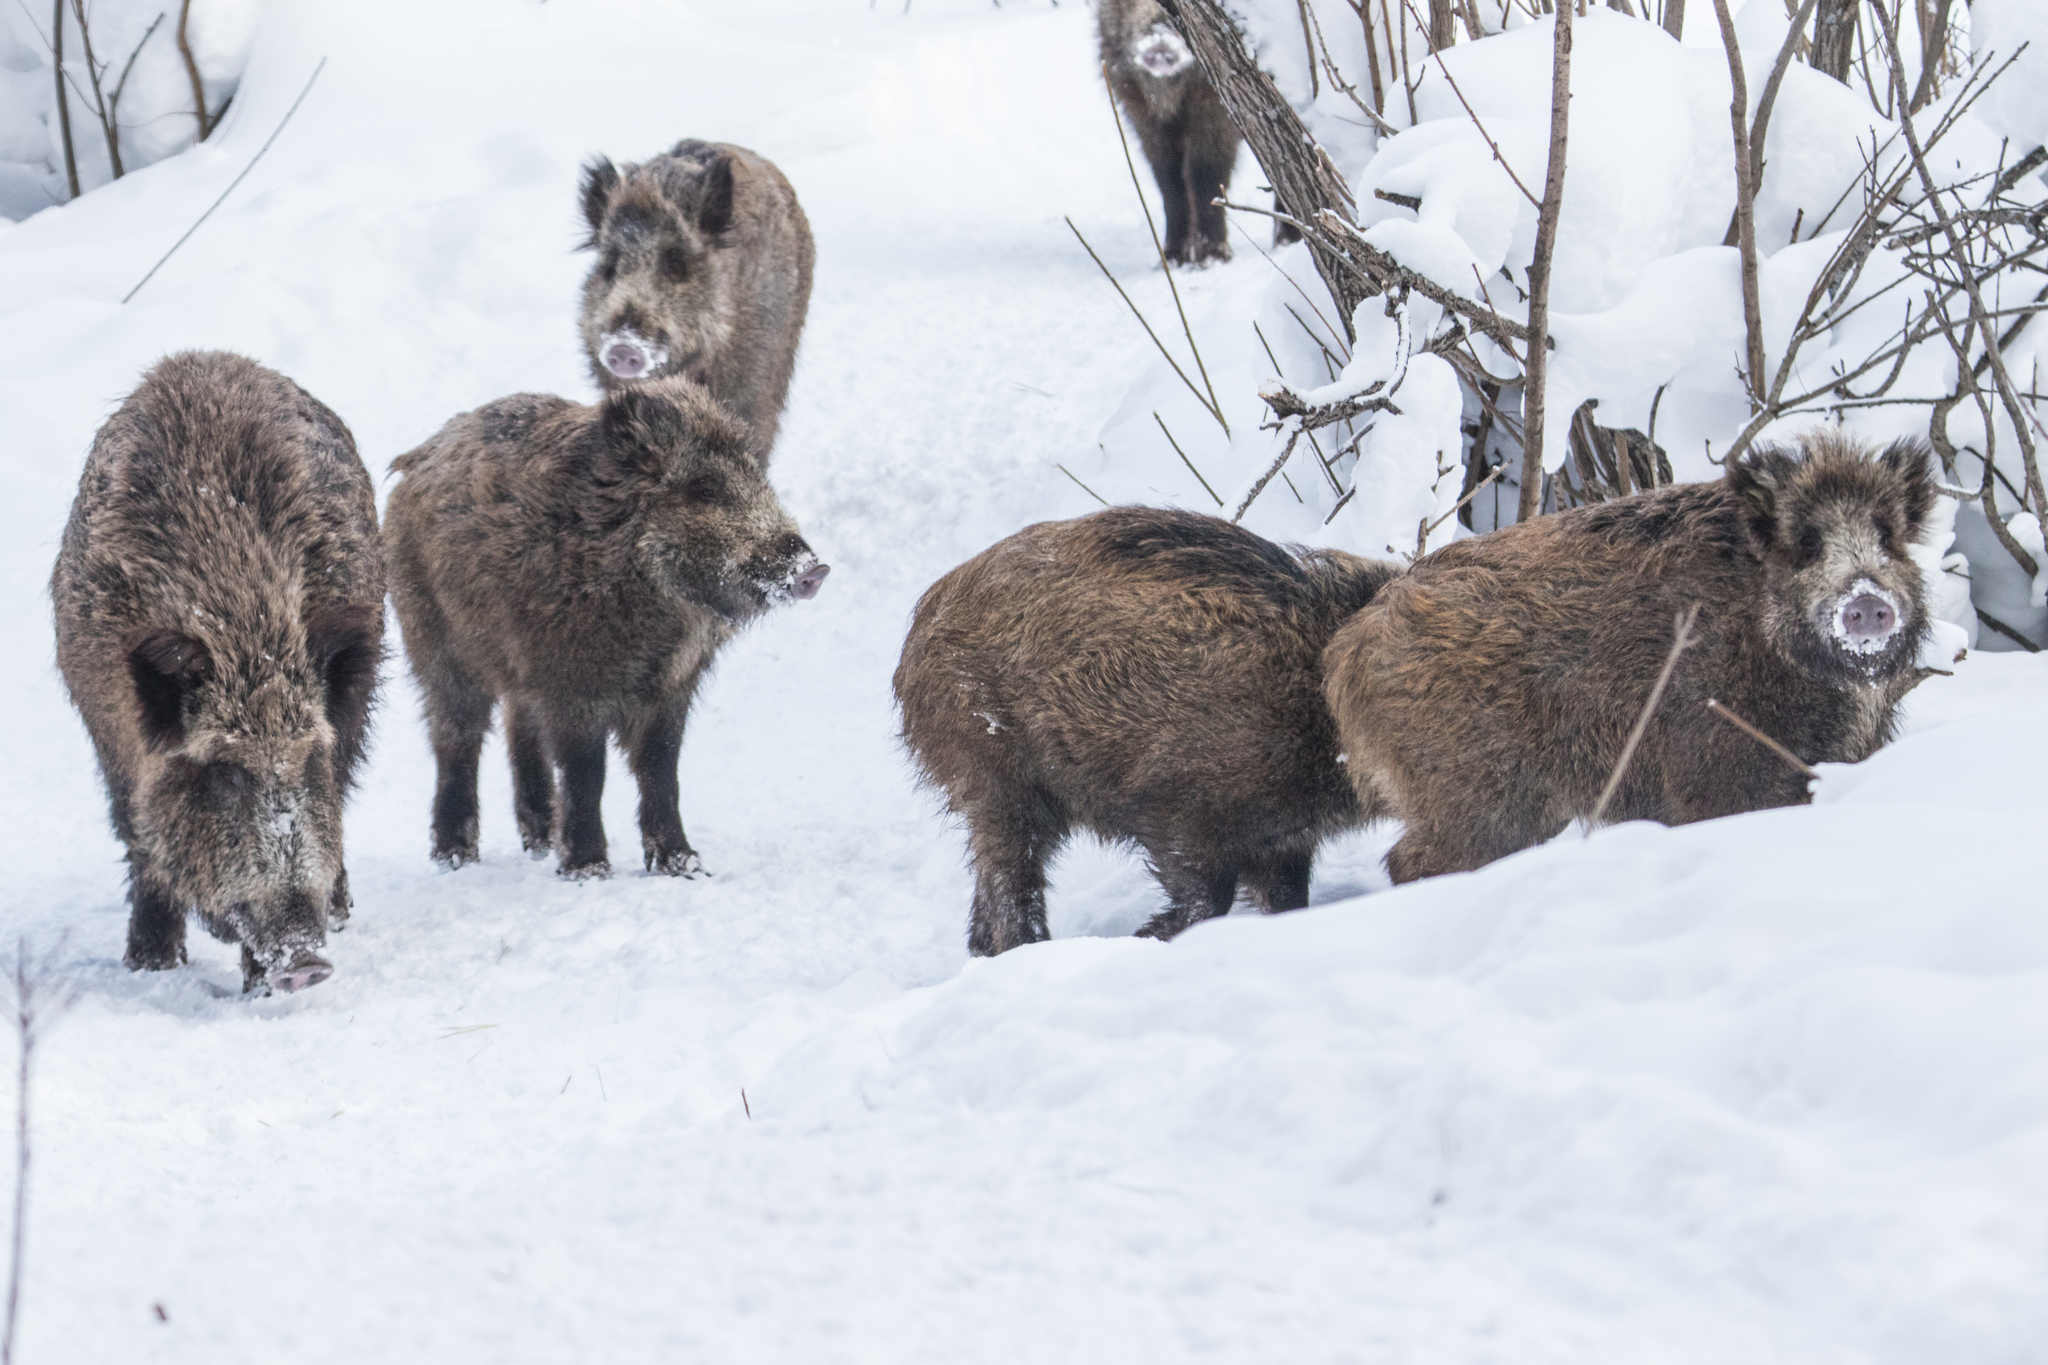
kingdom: Animalia
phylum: Chordata
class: Mammalia
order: Artiodactyla
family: Suidae
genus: Sus
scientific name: Sus scrofa
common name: Wild boar
